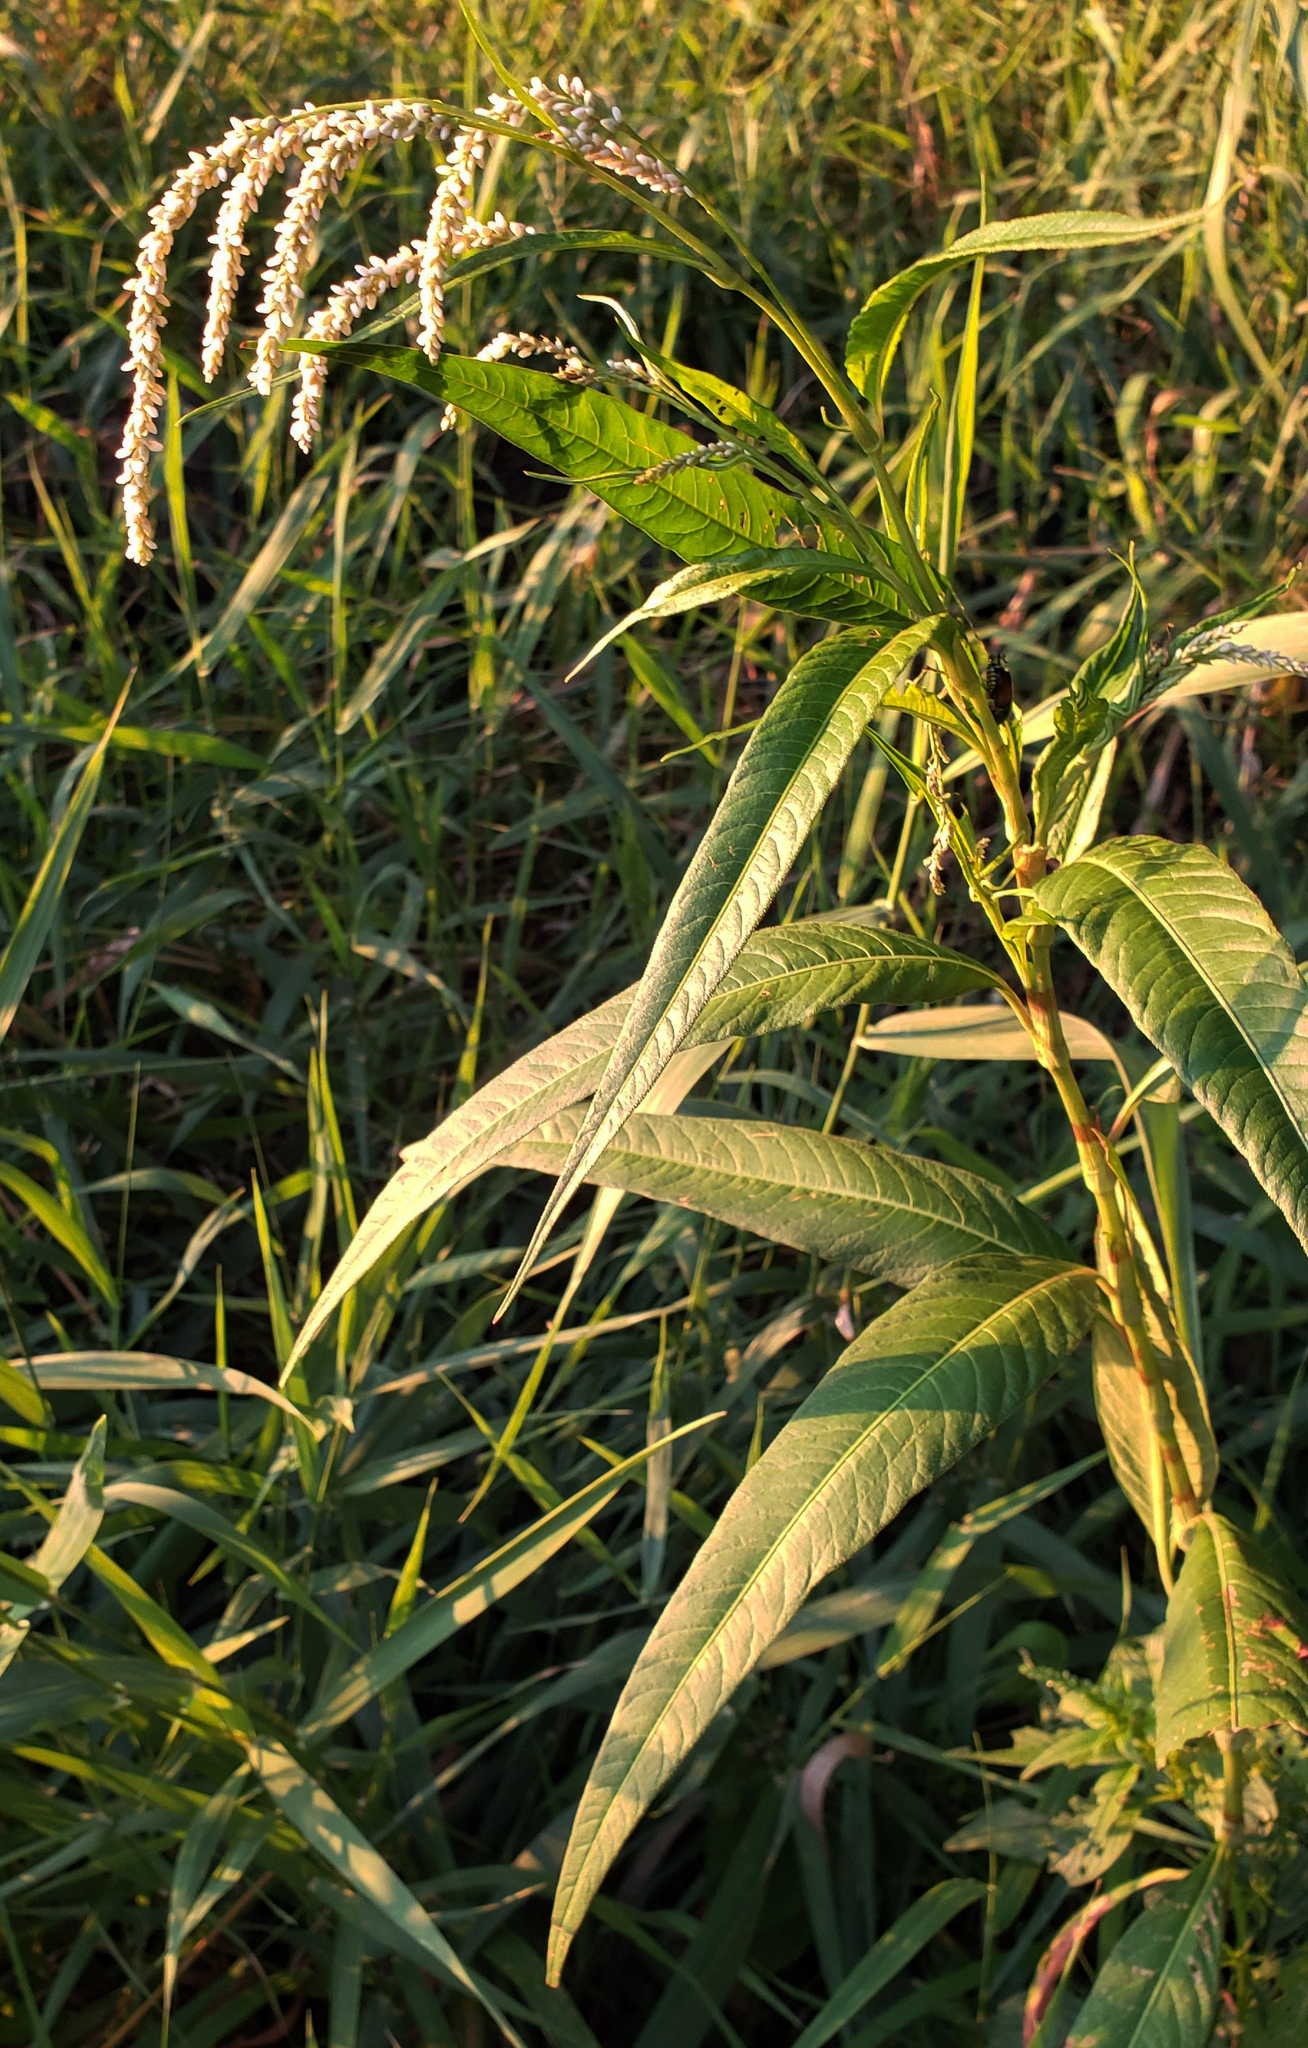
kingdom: Plantae
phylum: Tracheophyta
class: Magnoliopsida
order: Caryophyllales
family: Polygonaceae
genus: Persicaria
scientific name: Persicaria lapathifolia
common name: Curlytop knotweed
